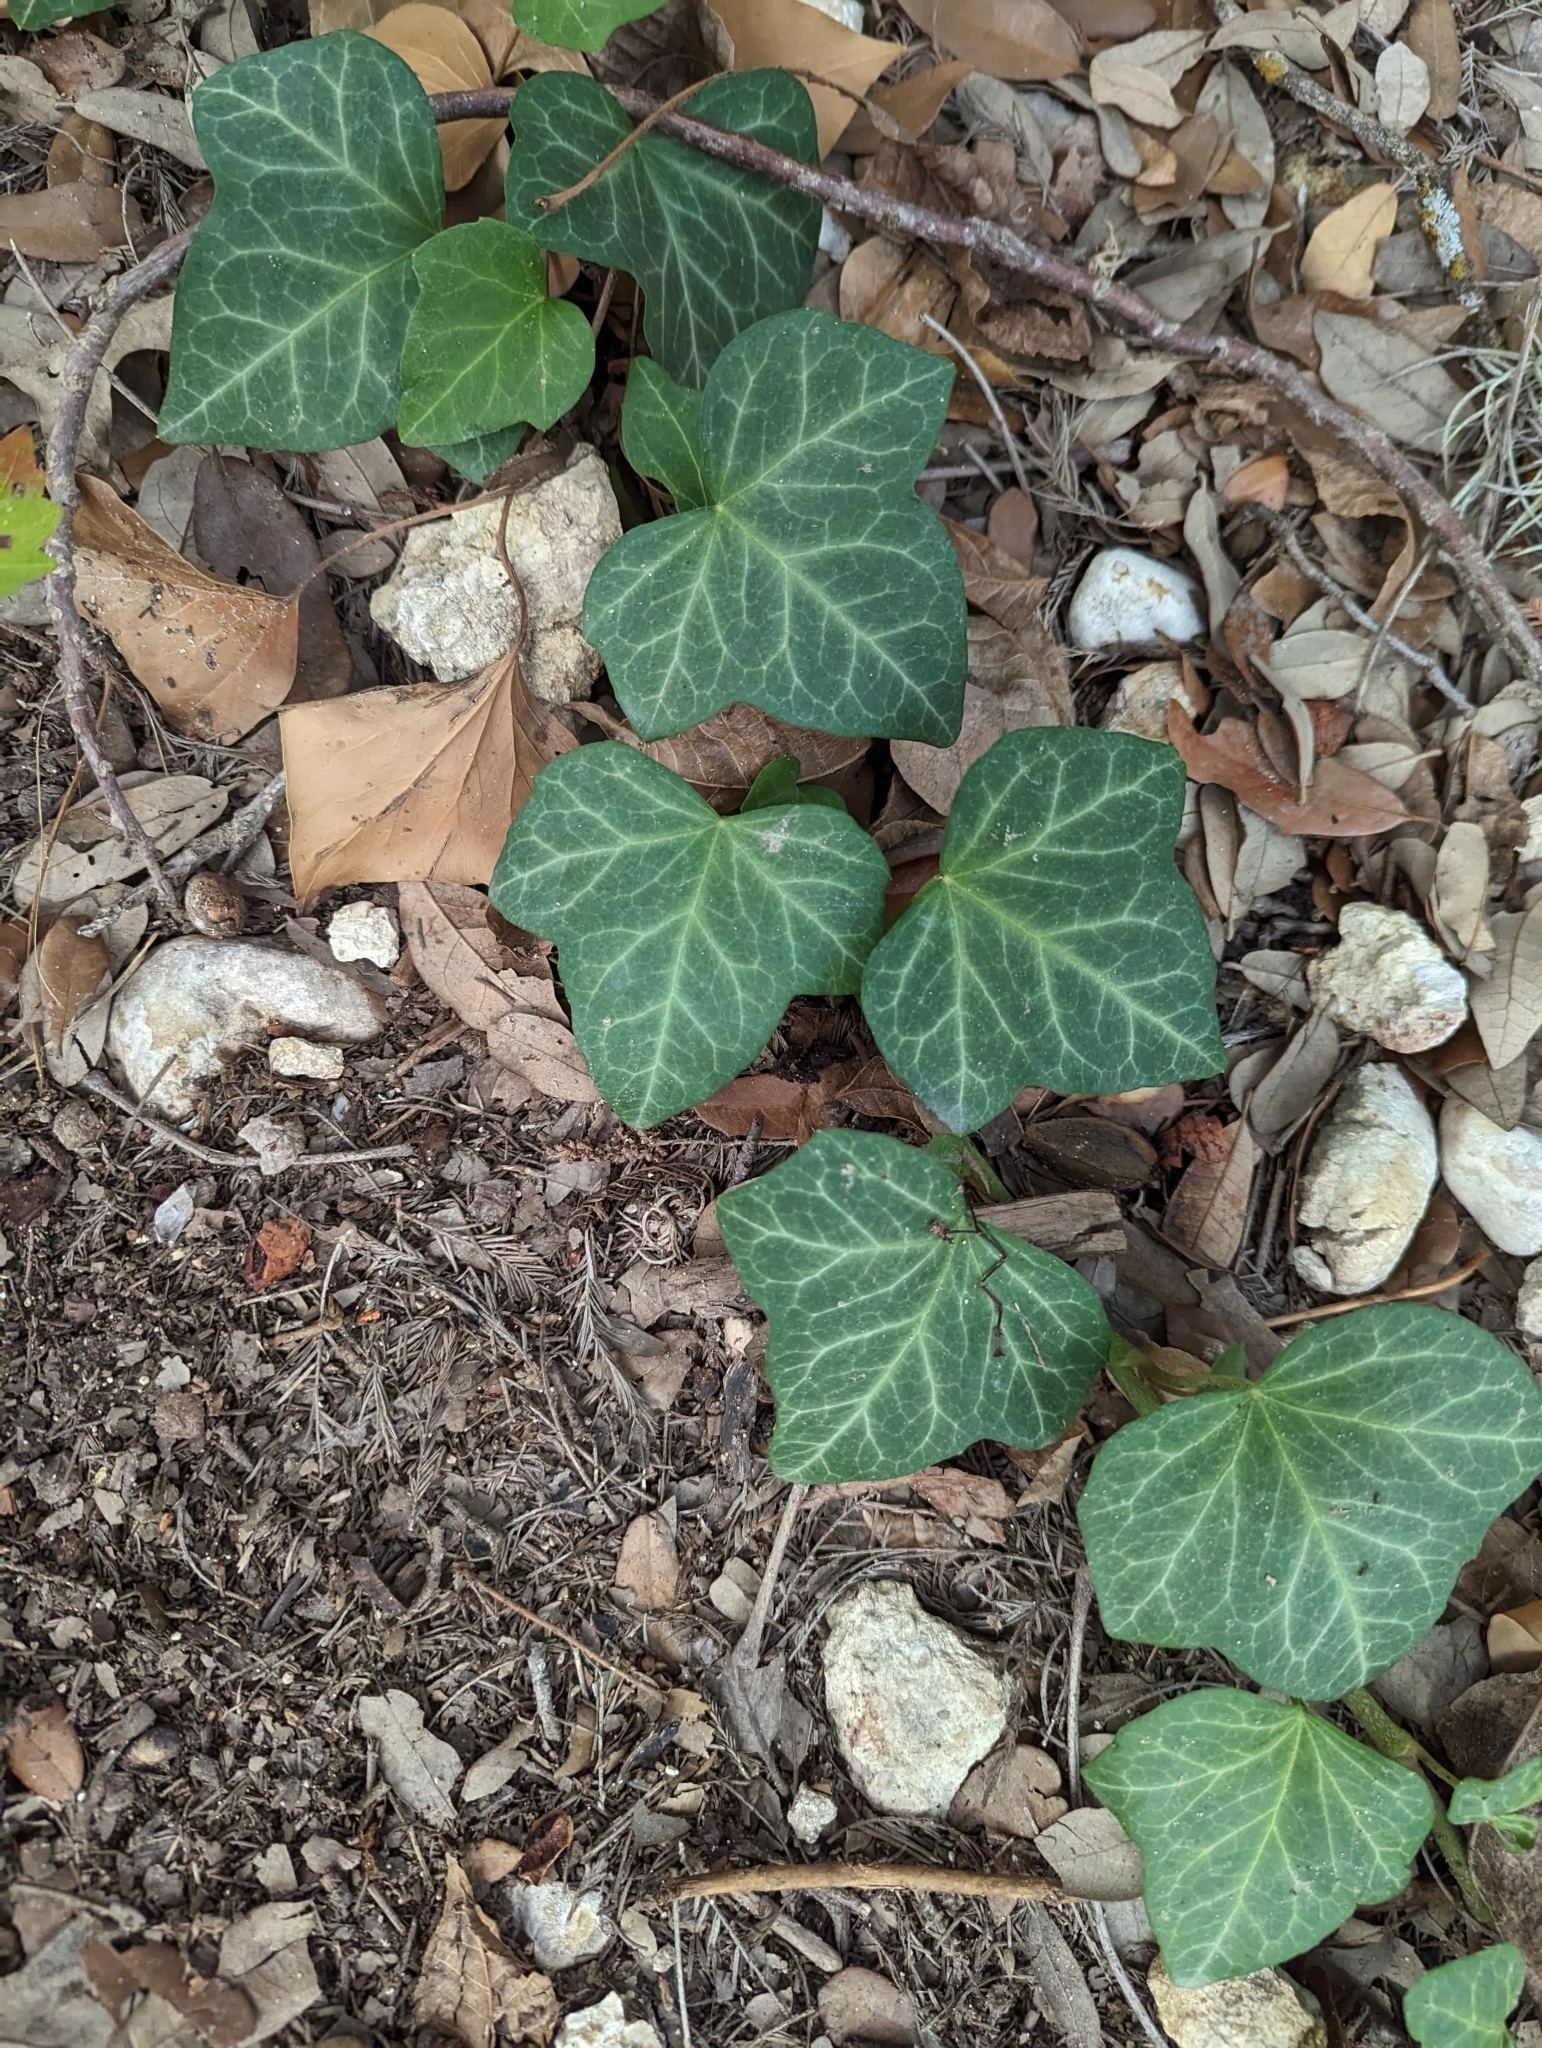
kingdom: Plantae
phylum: Tracheophyta
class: Magnoliopsida
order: Apiales
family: Araliaceae
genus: Hedera
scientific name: Hedera helix
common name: Ivy
